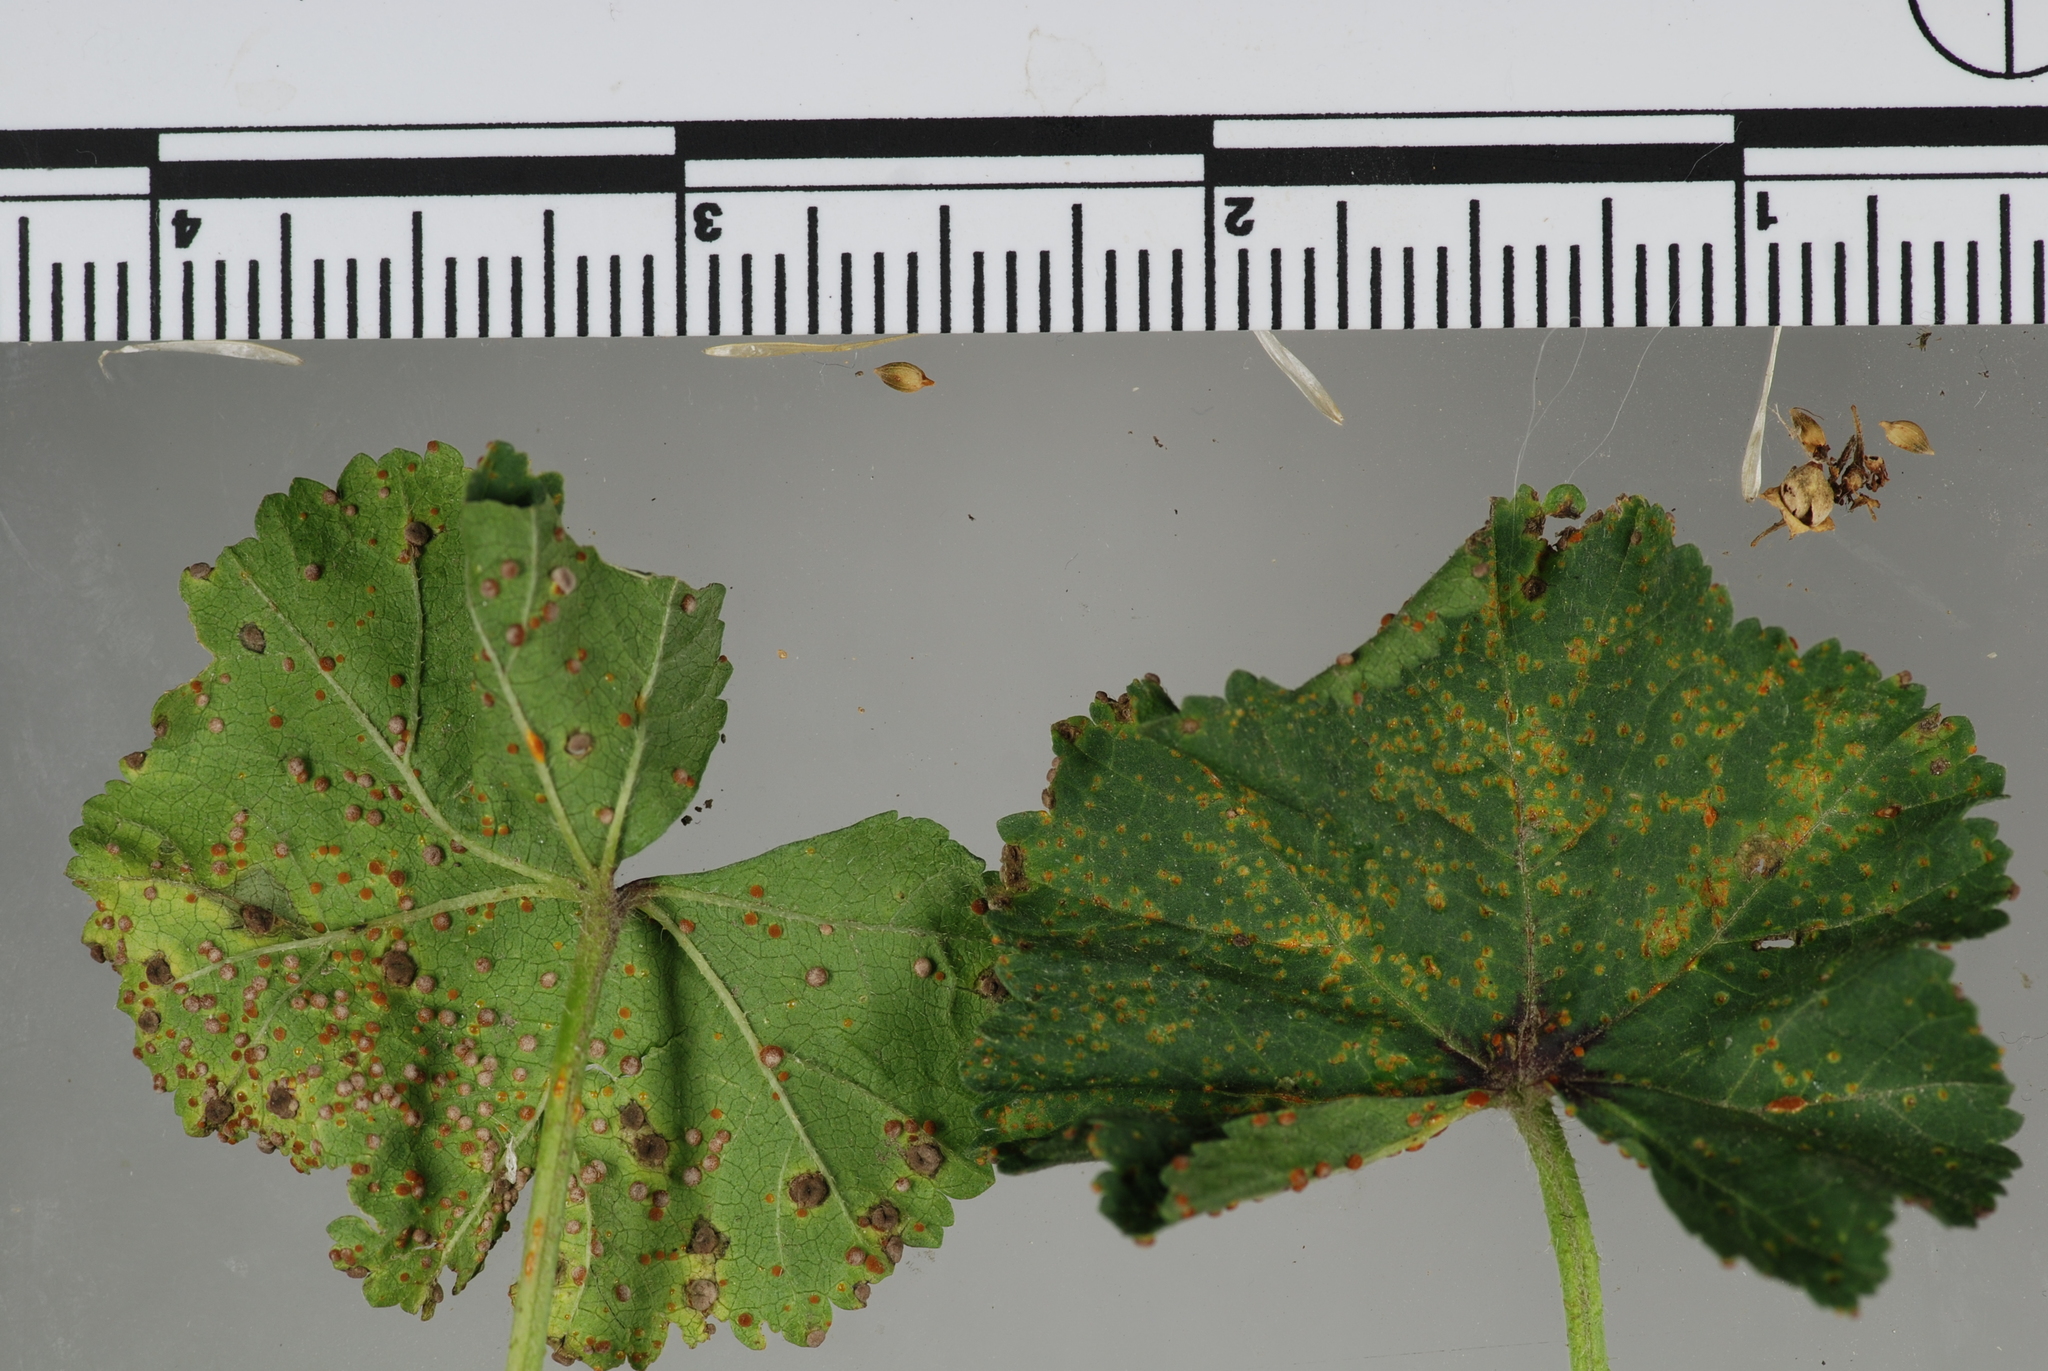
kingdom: Fungi
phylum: Basidiomycota
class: Pucciniomycetes
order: Pucciniales
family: Pucciniaceae
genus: Puccinia
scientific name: Puccinia malvacearum
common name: Hollyhock rust
